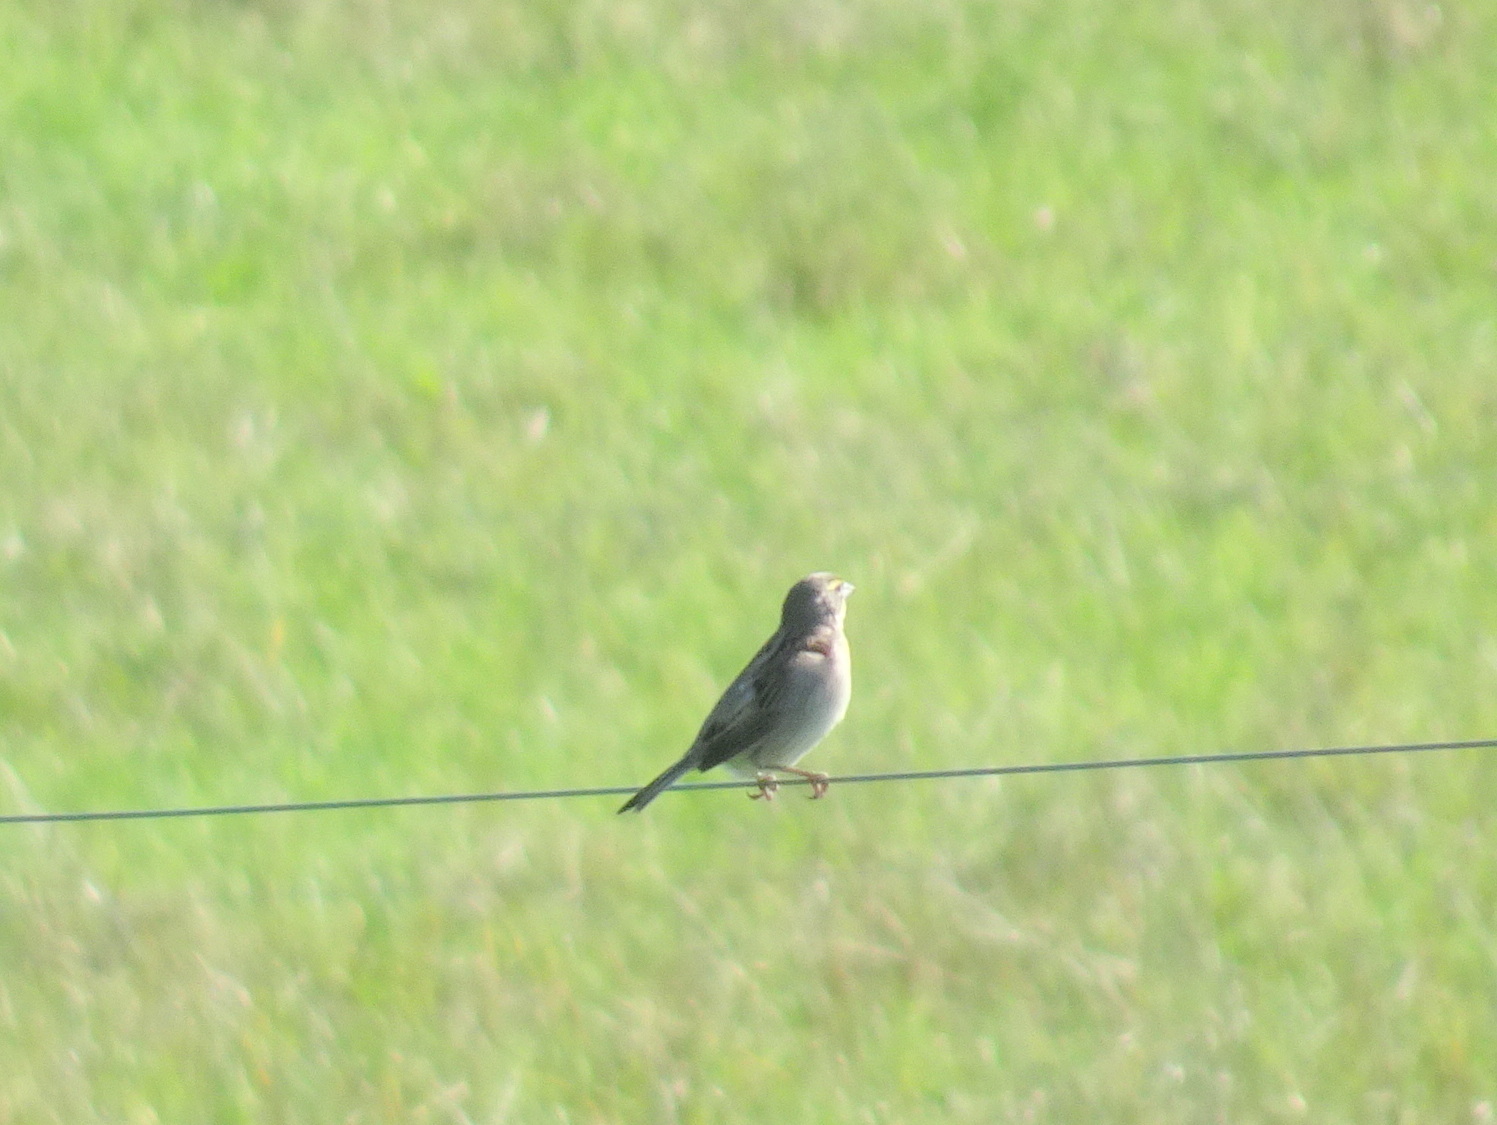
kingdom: Animalia
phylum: Chordata
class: Aves
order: Passeriformes
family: Cardinalidae
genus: Spiza
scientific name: Spiza americana
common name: Dickcissel
